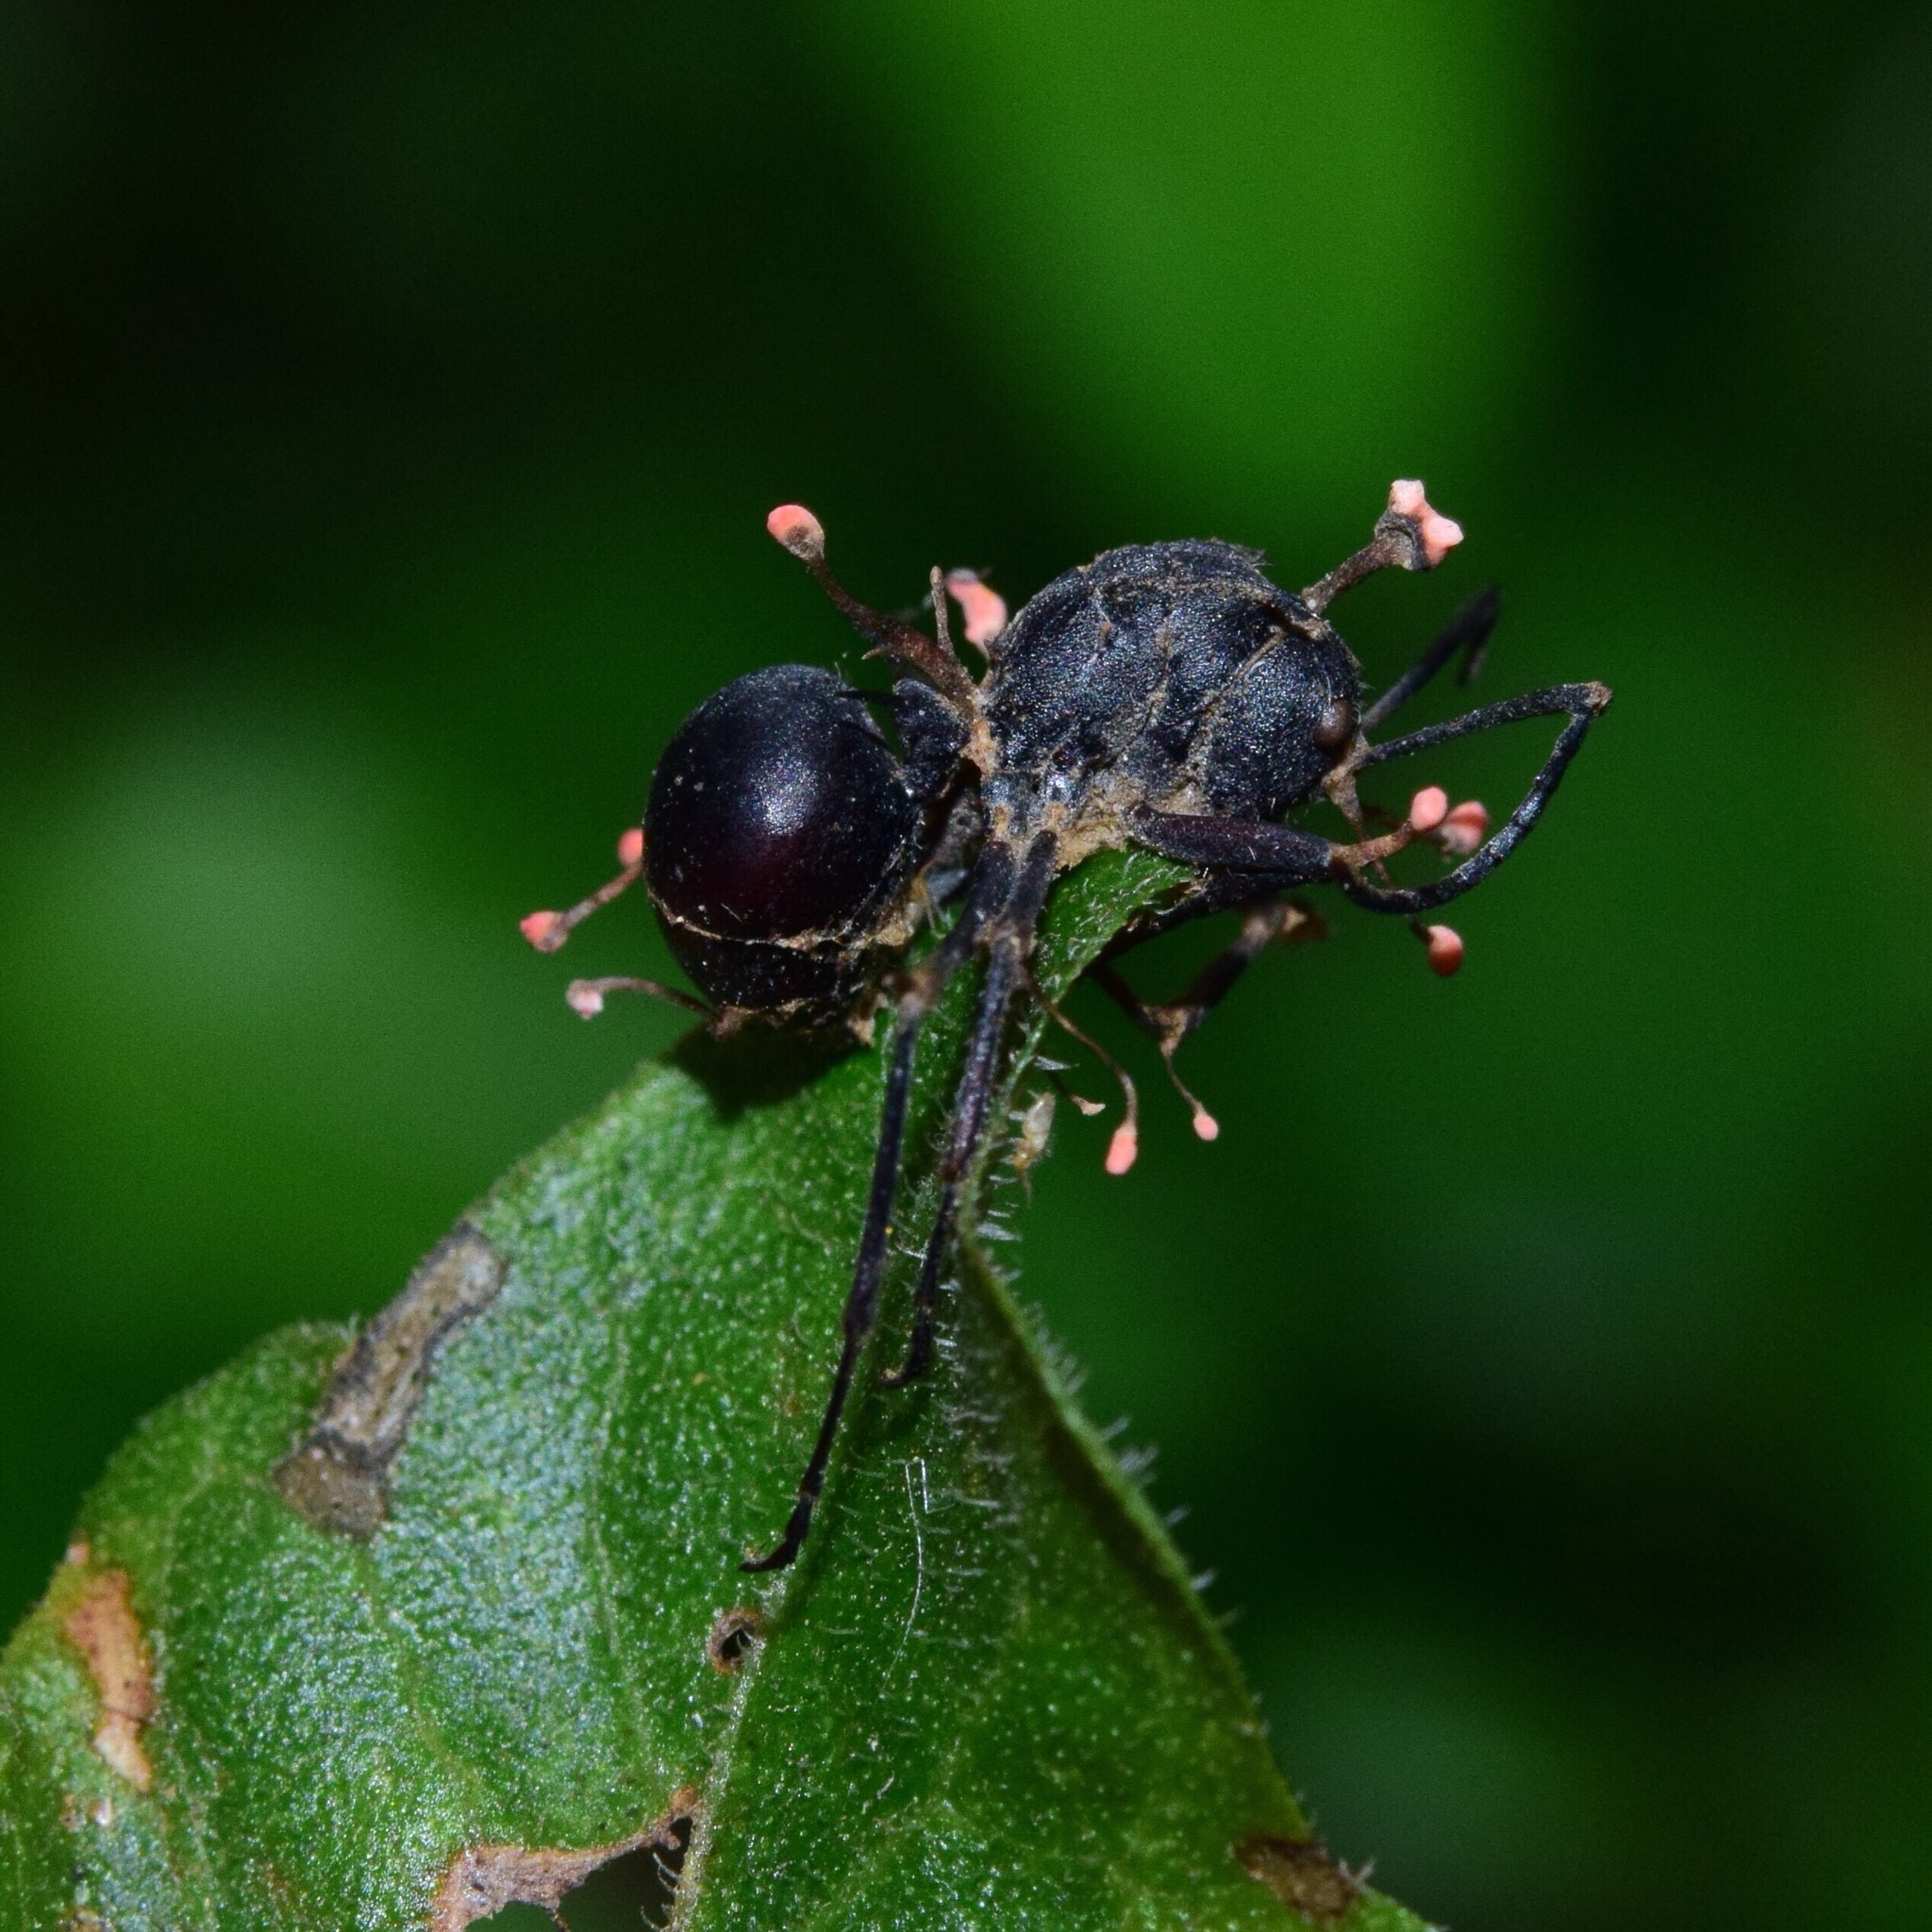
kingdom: Fungi
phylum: Ascomycota
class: Sordariomycetes
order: Hypocreales
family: Ophiocordycipitaceae
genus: Ophiocordyceps
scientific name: Ophiocordyceps buquetii
